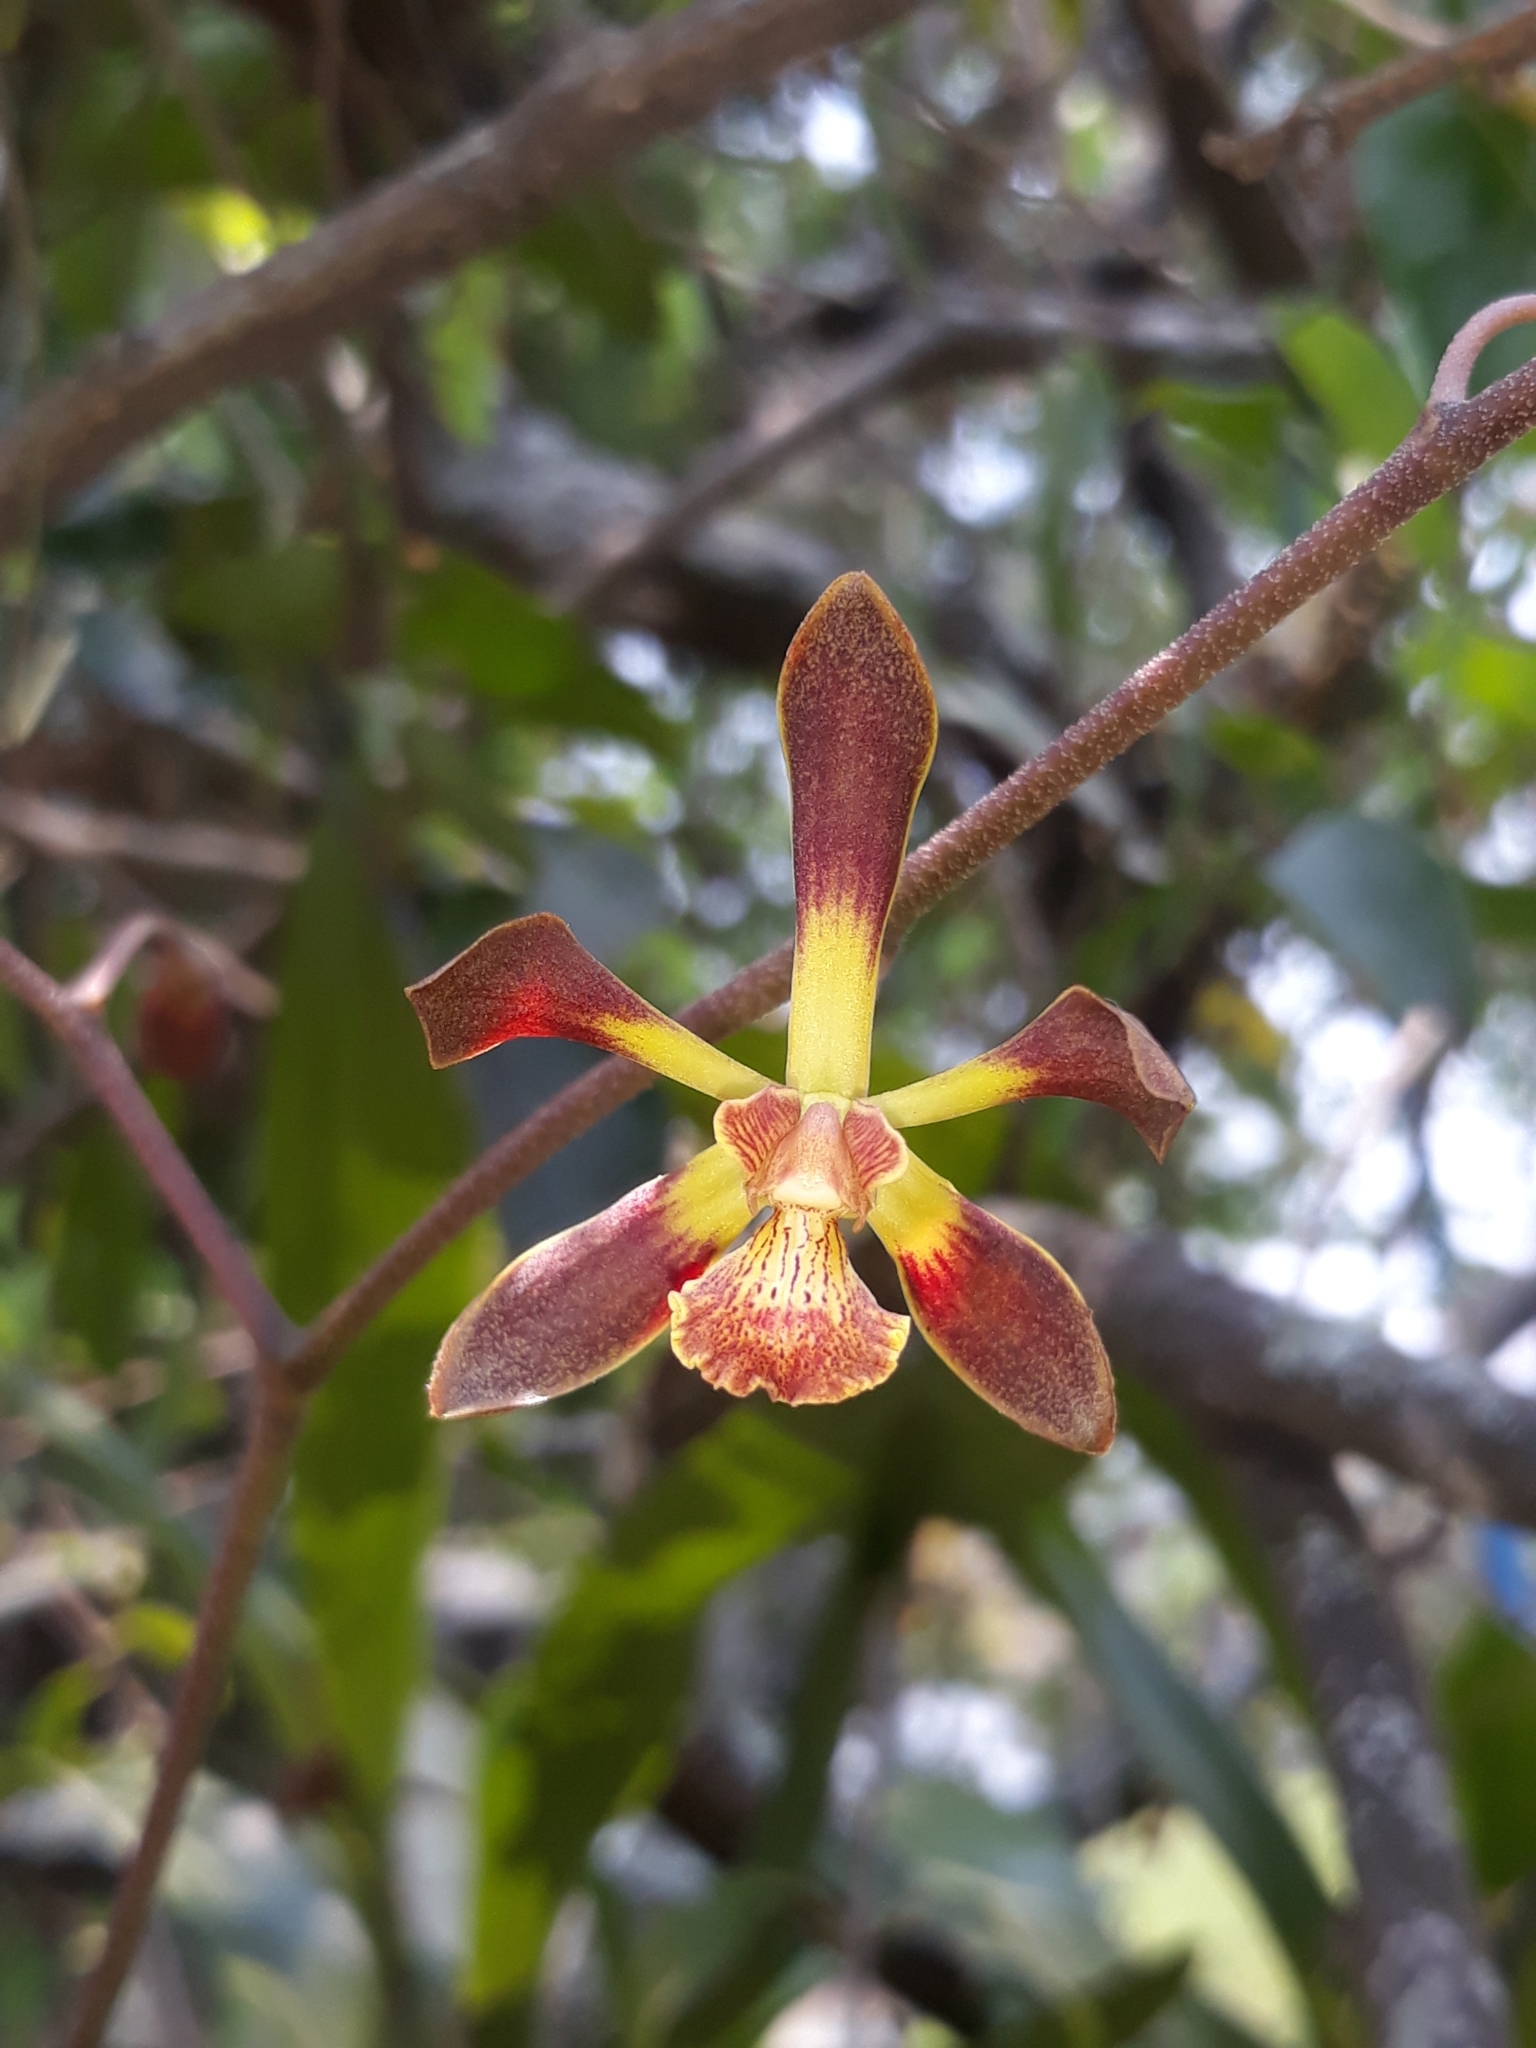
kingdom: Plantae
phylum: Tracheophyta
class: Liliopsida
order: Asparagales
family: Orchidaceae
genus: Encyclia
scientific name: Encyclia parviflora
